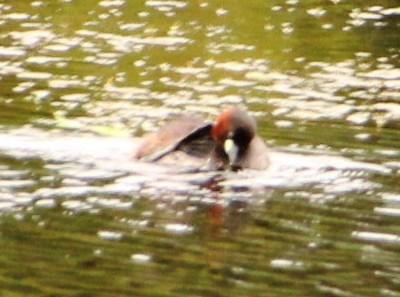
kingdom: Animalia
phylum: Chordata
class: Aves
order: Podicipediformes
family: Podicipedidae
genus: Tachybaptus
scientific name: Tachybaptus ruficollis
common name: Little grebe
